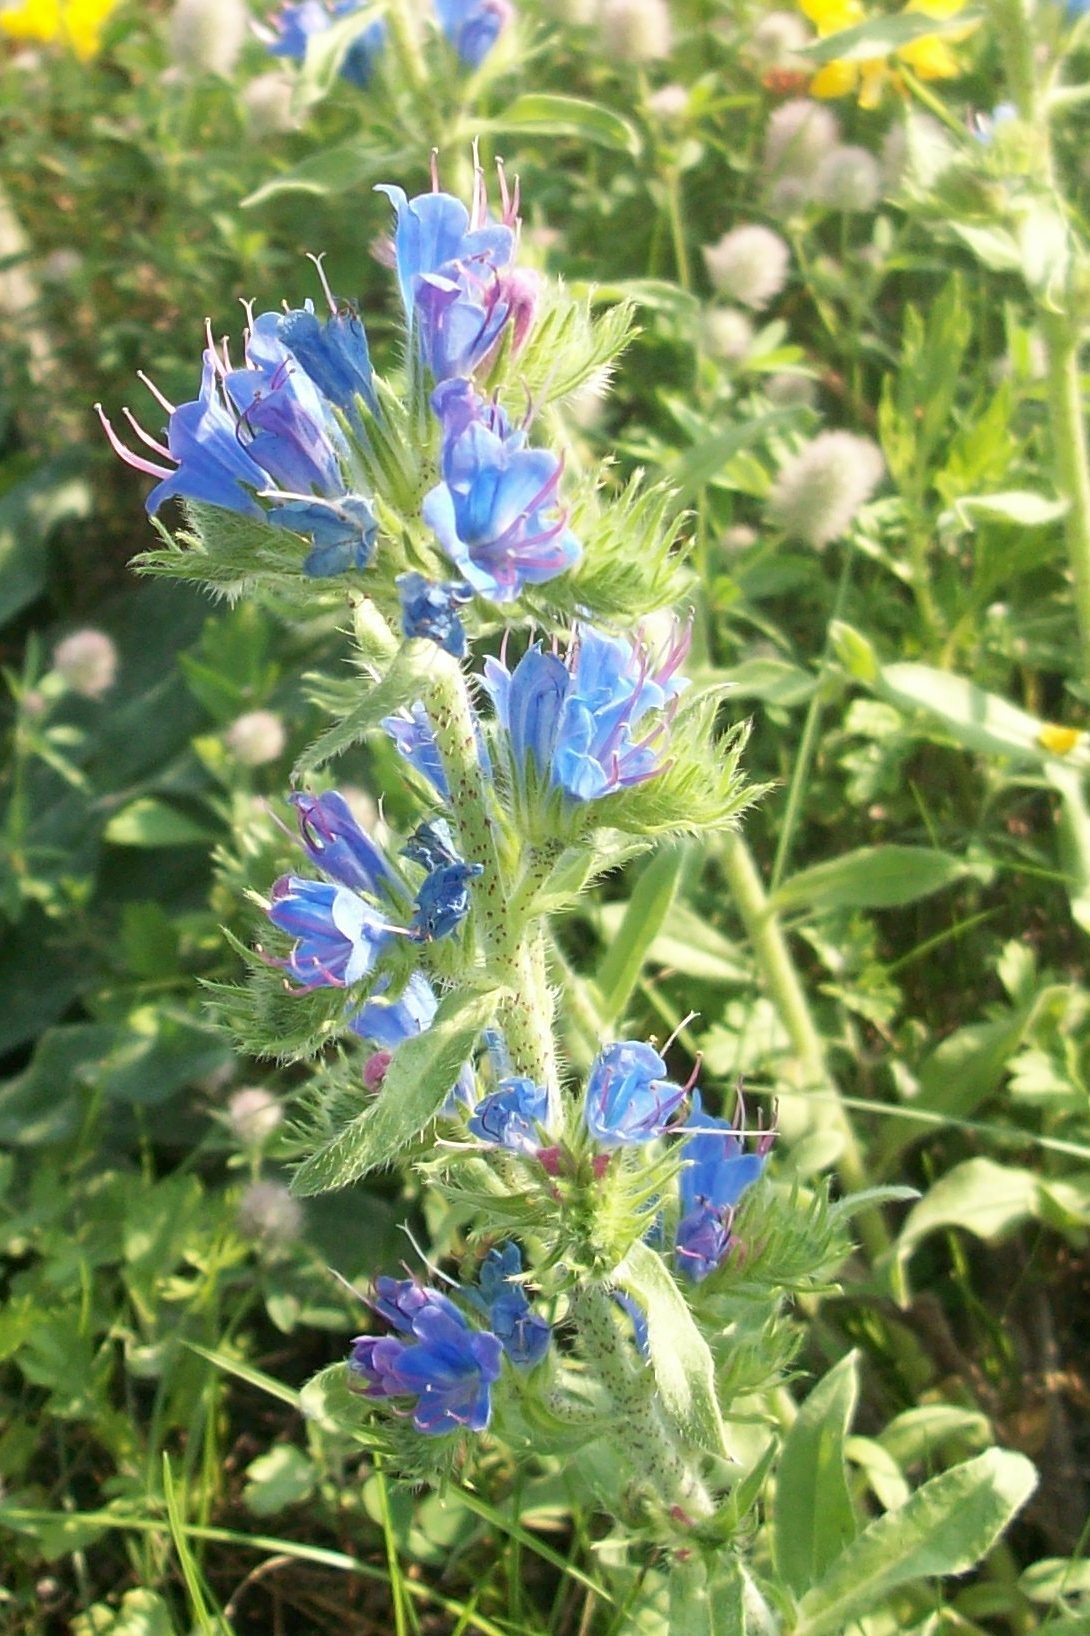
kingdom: Plantae
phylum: Tracheophyta
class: Magnoliopsida
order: Boraginales
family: Boraginaceae
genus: Echium
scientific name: Echium vulgare
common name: Common viper's bugloss
